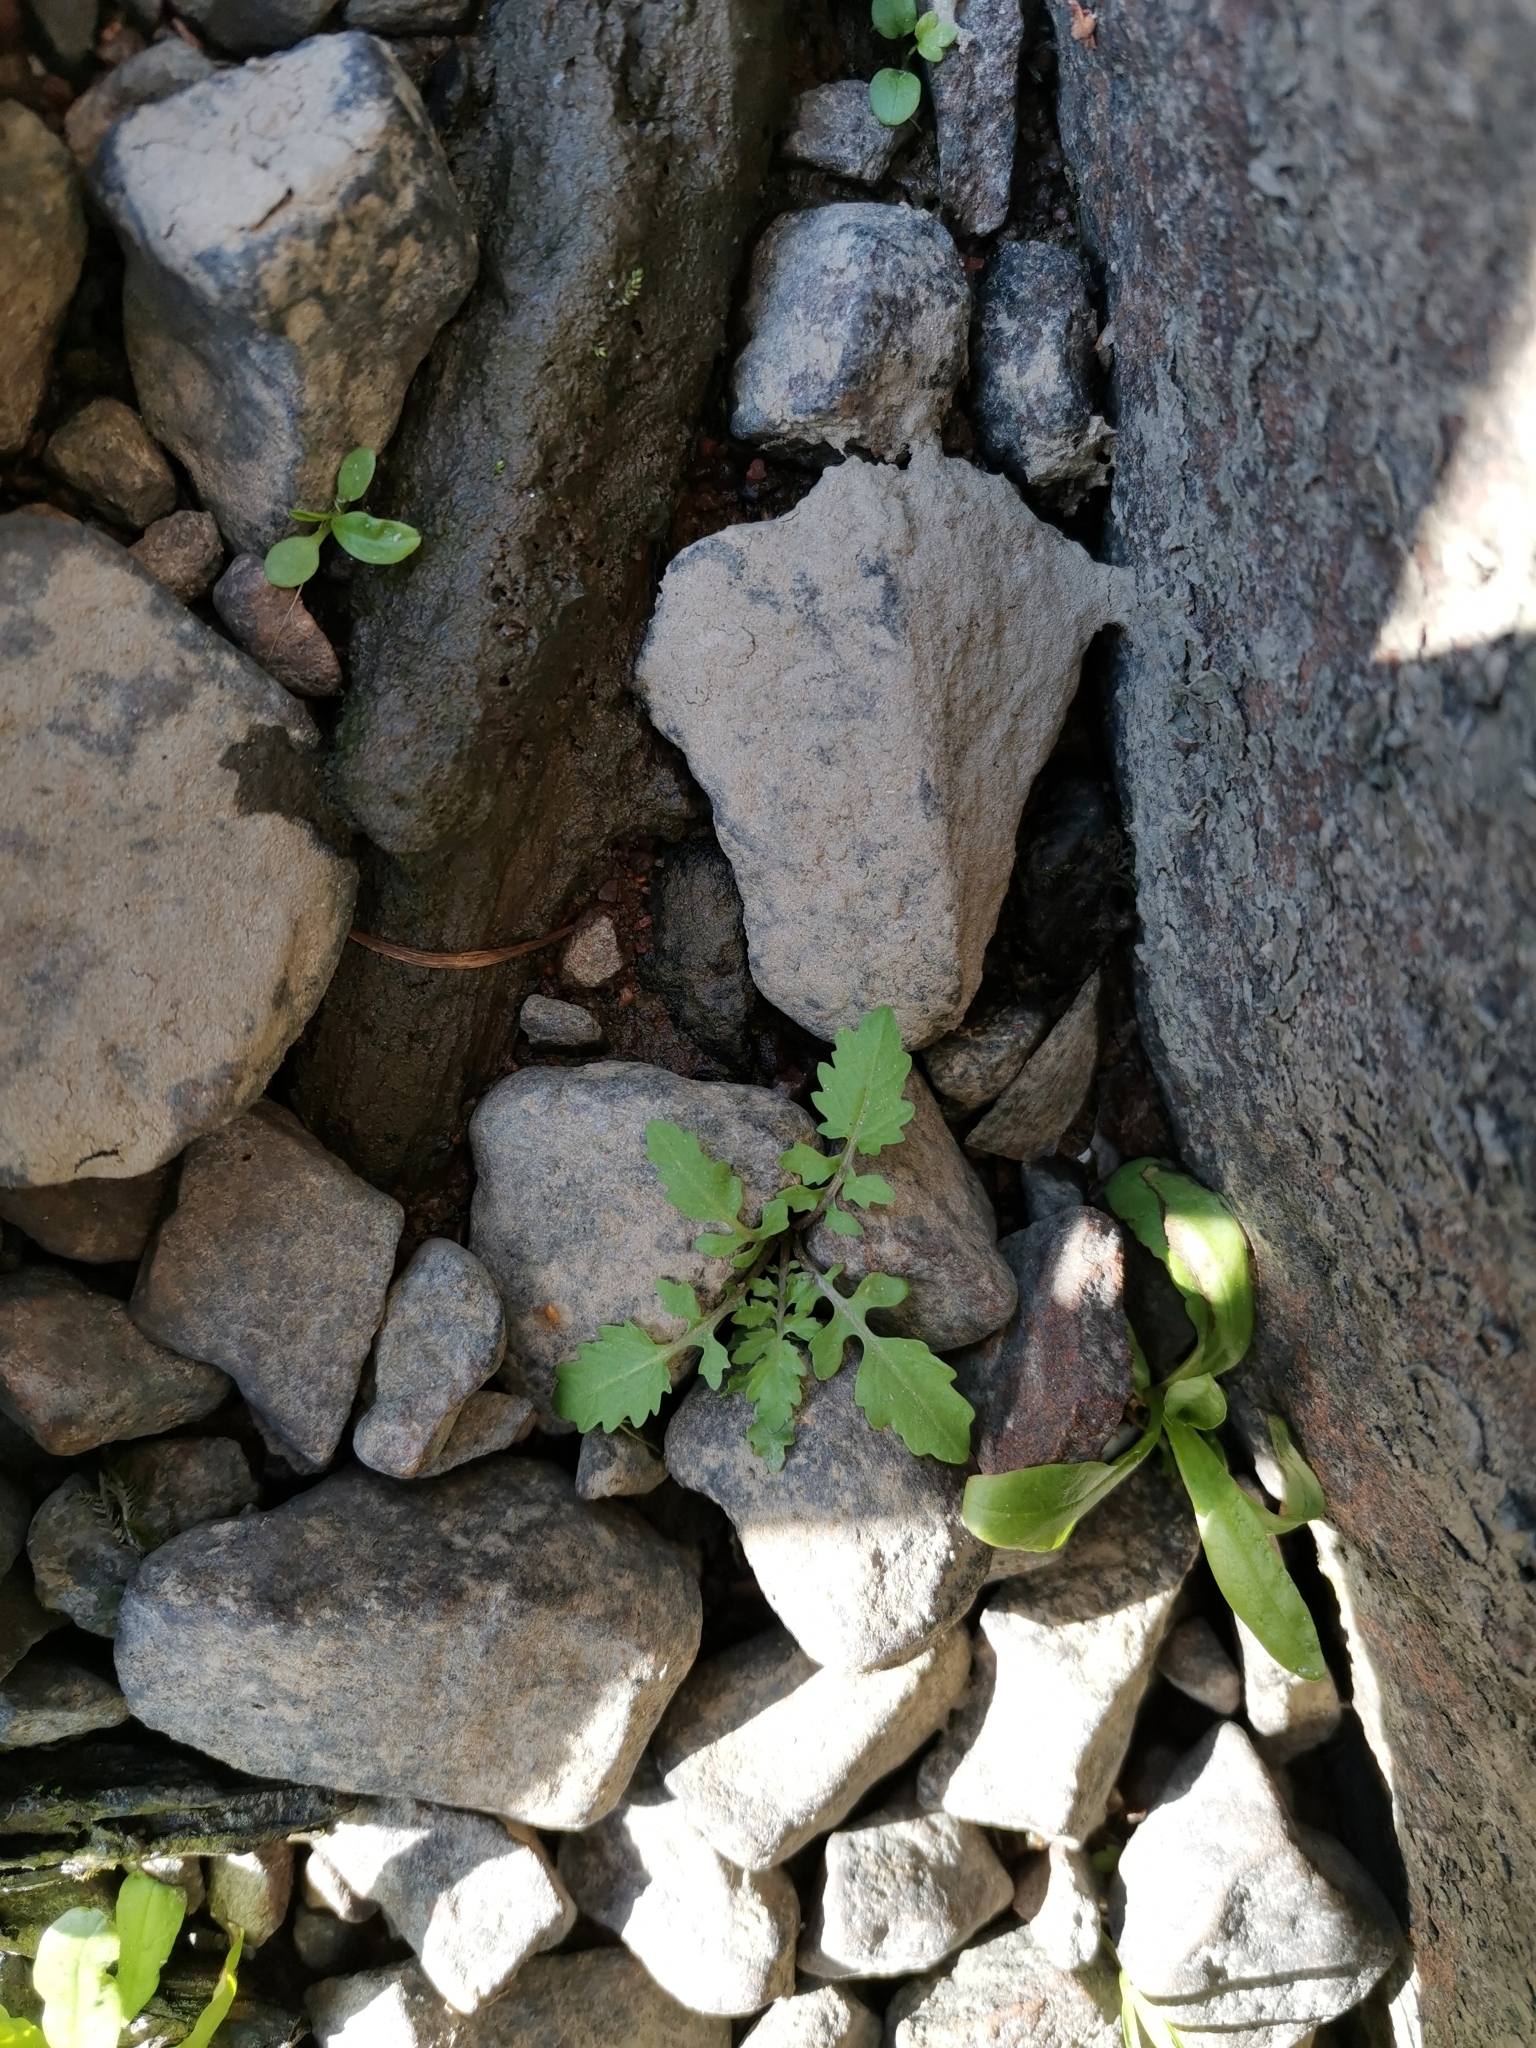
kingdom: Plantae
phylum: Tracheophyta
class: Magnoliopsida
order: Brassicales
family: Brassicaceae
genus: Rorippa
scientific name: Rorippa palustris
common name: Marsh yellow-cress
